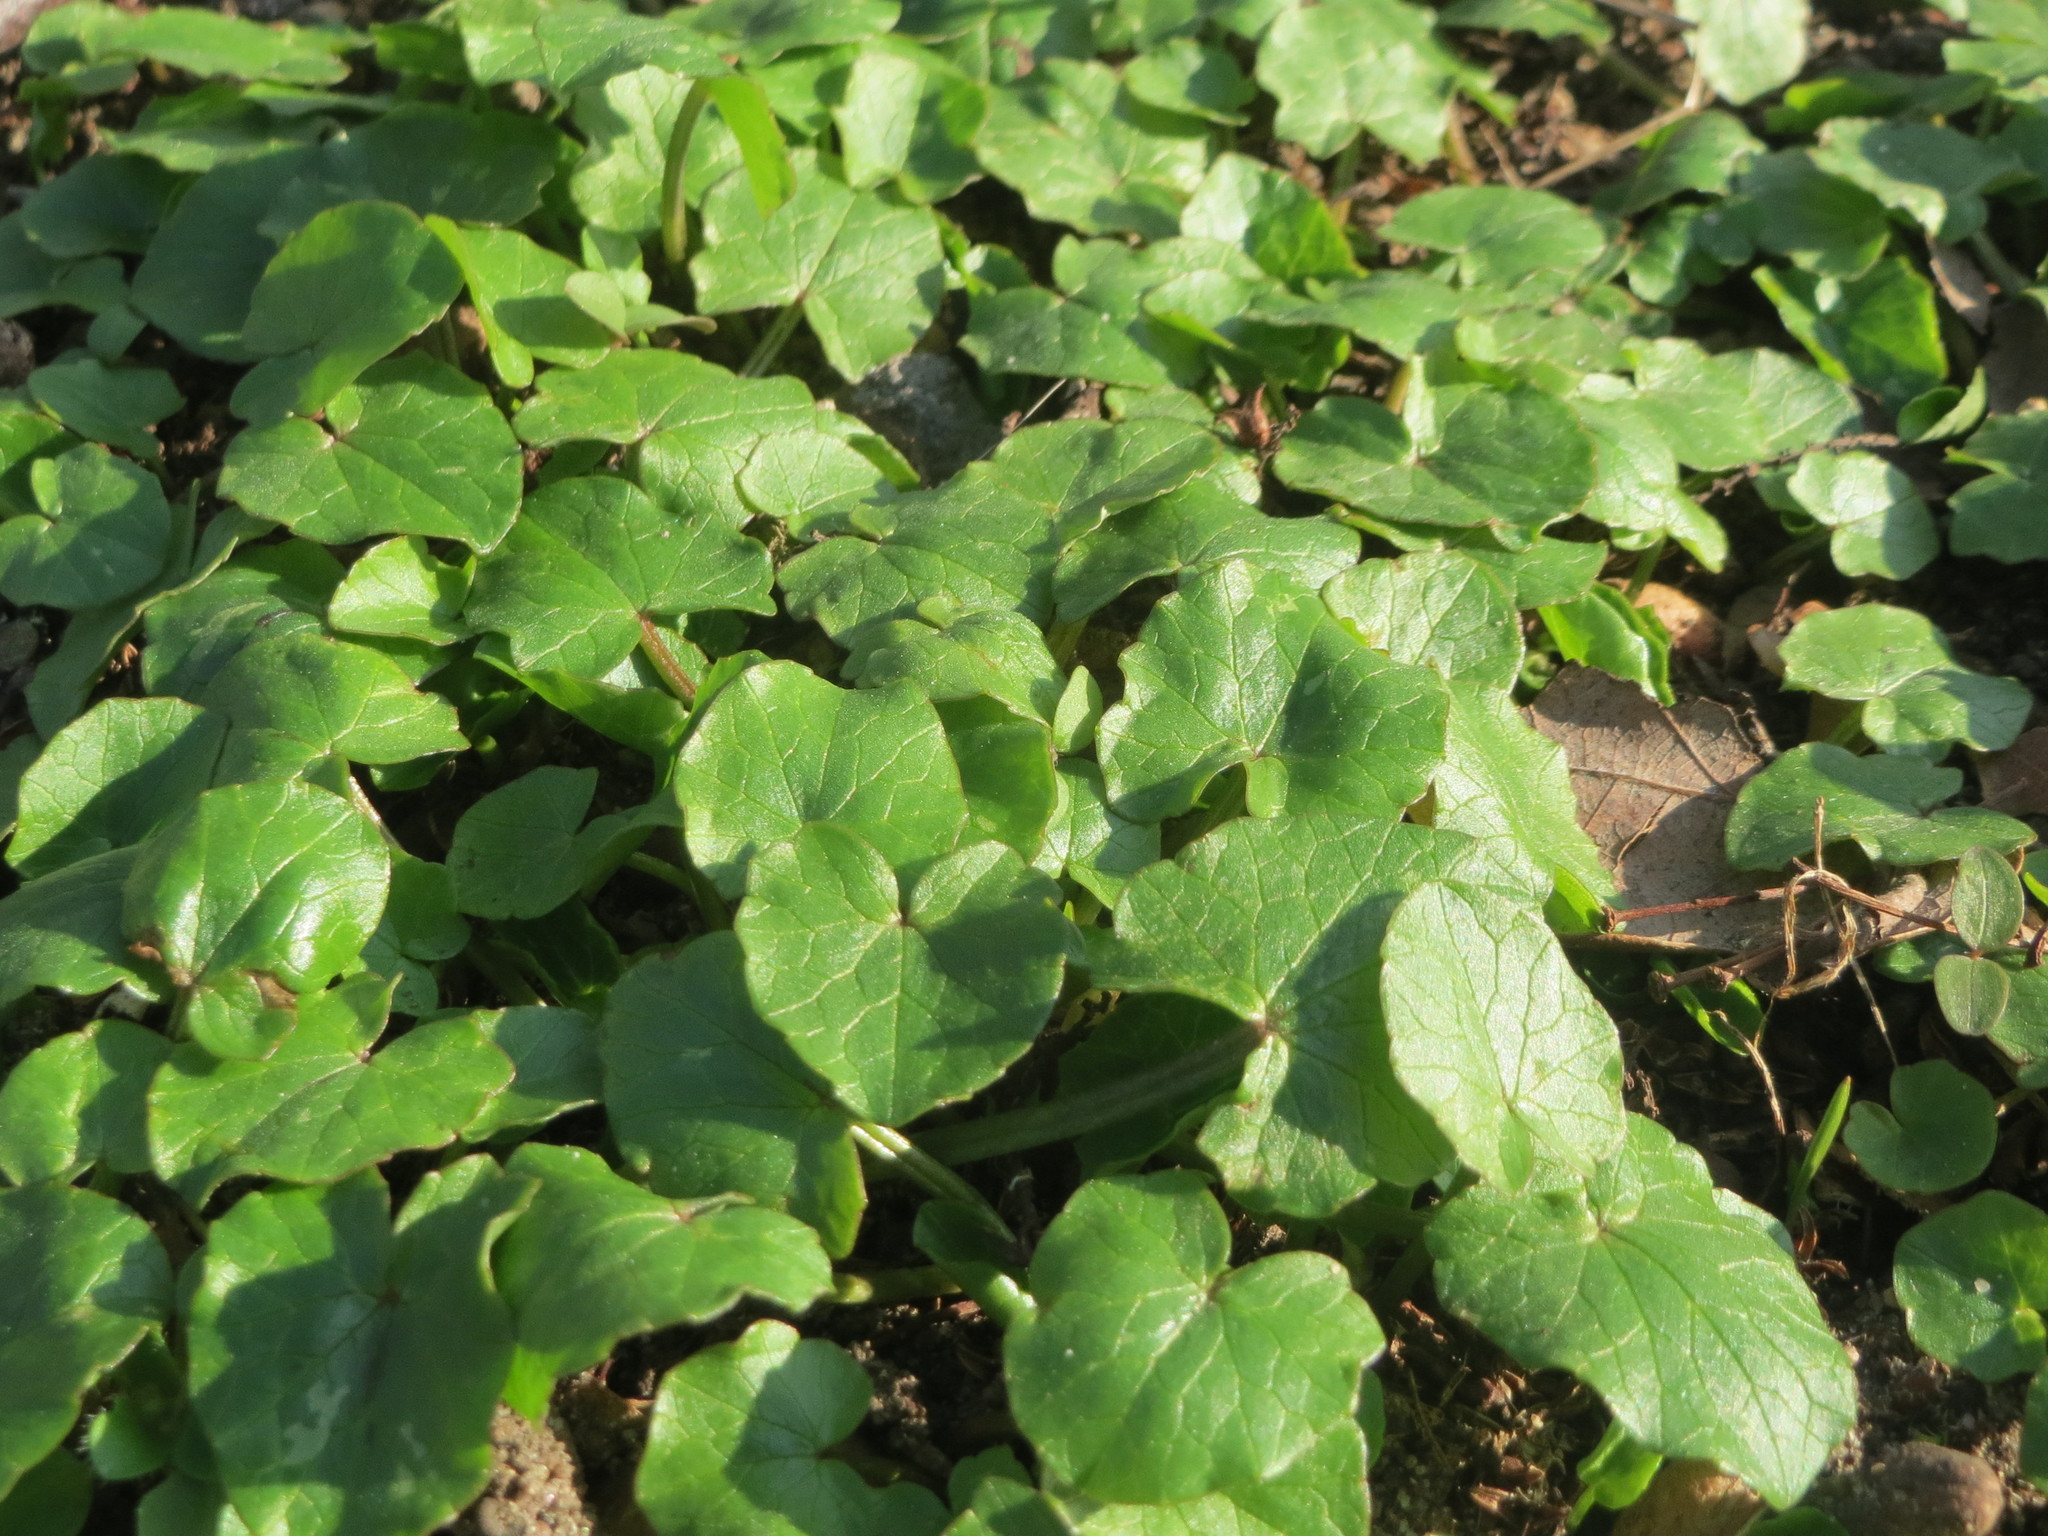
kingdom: Plantae
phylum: Tracheophyta
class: Magnoliopsida
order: Ranunculales
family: Ranunculaceae
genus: Ficaria
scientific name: Ficaria verna
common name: Lesser celandine
